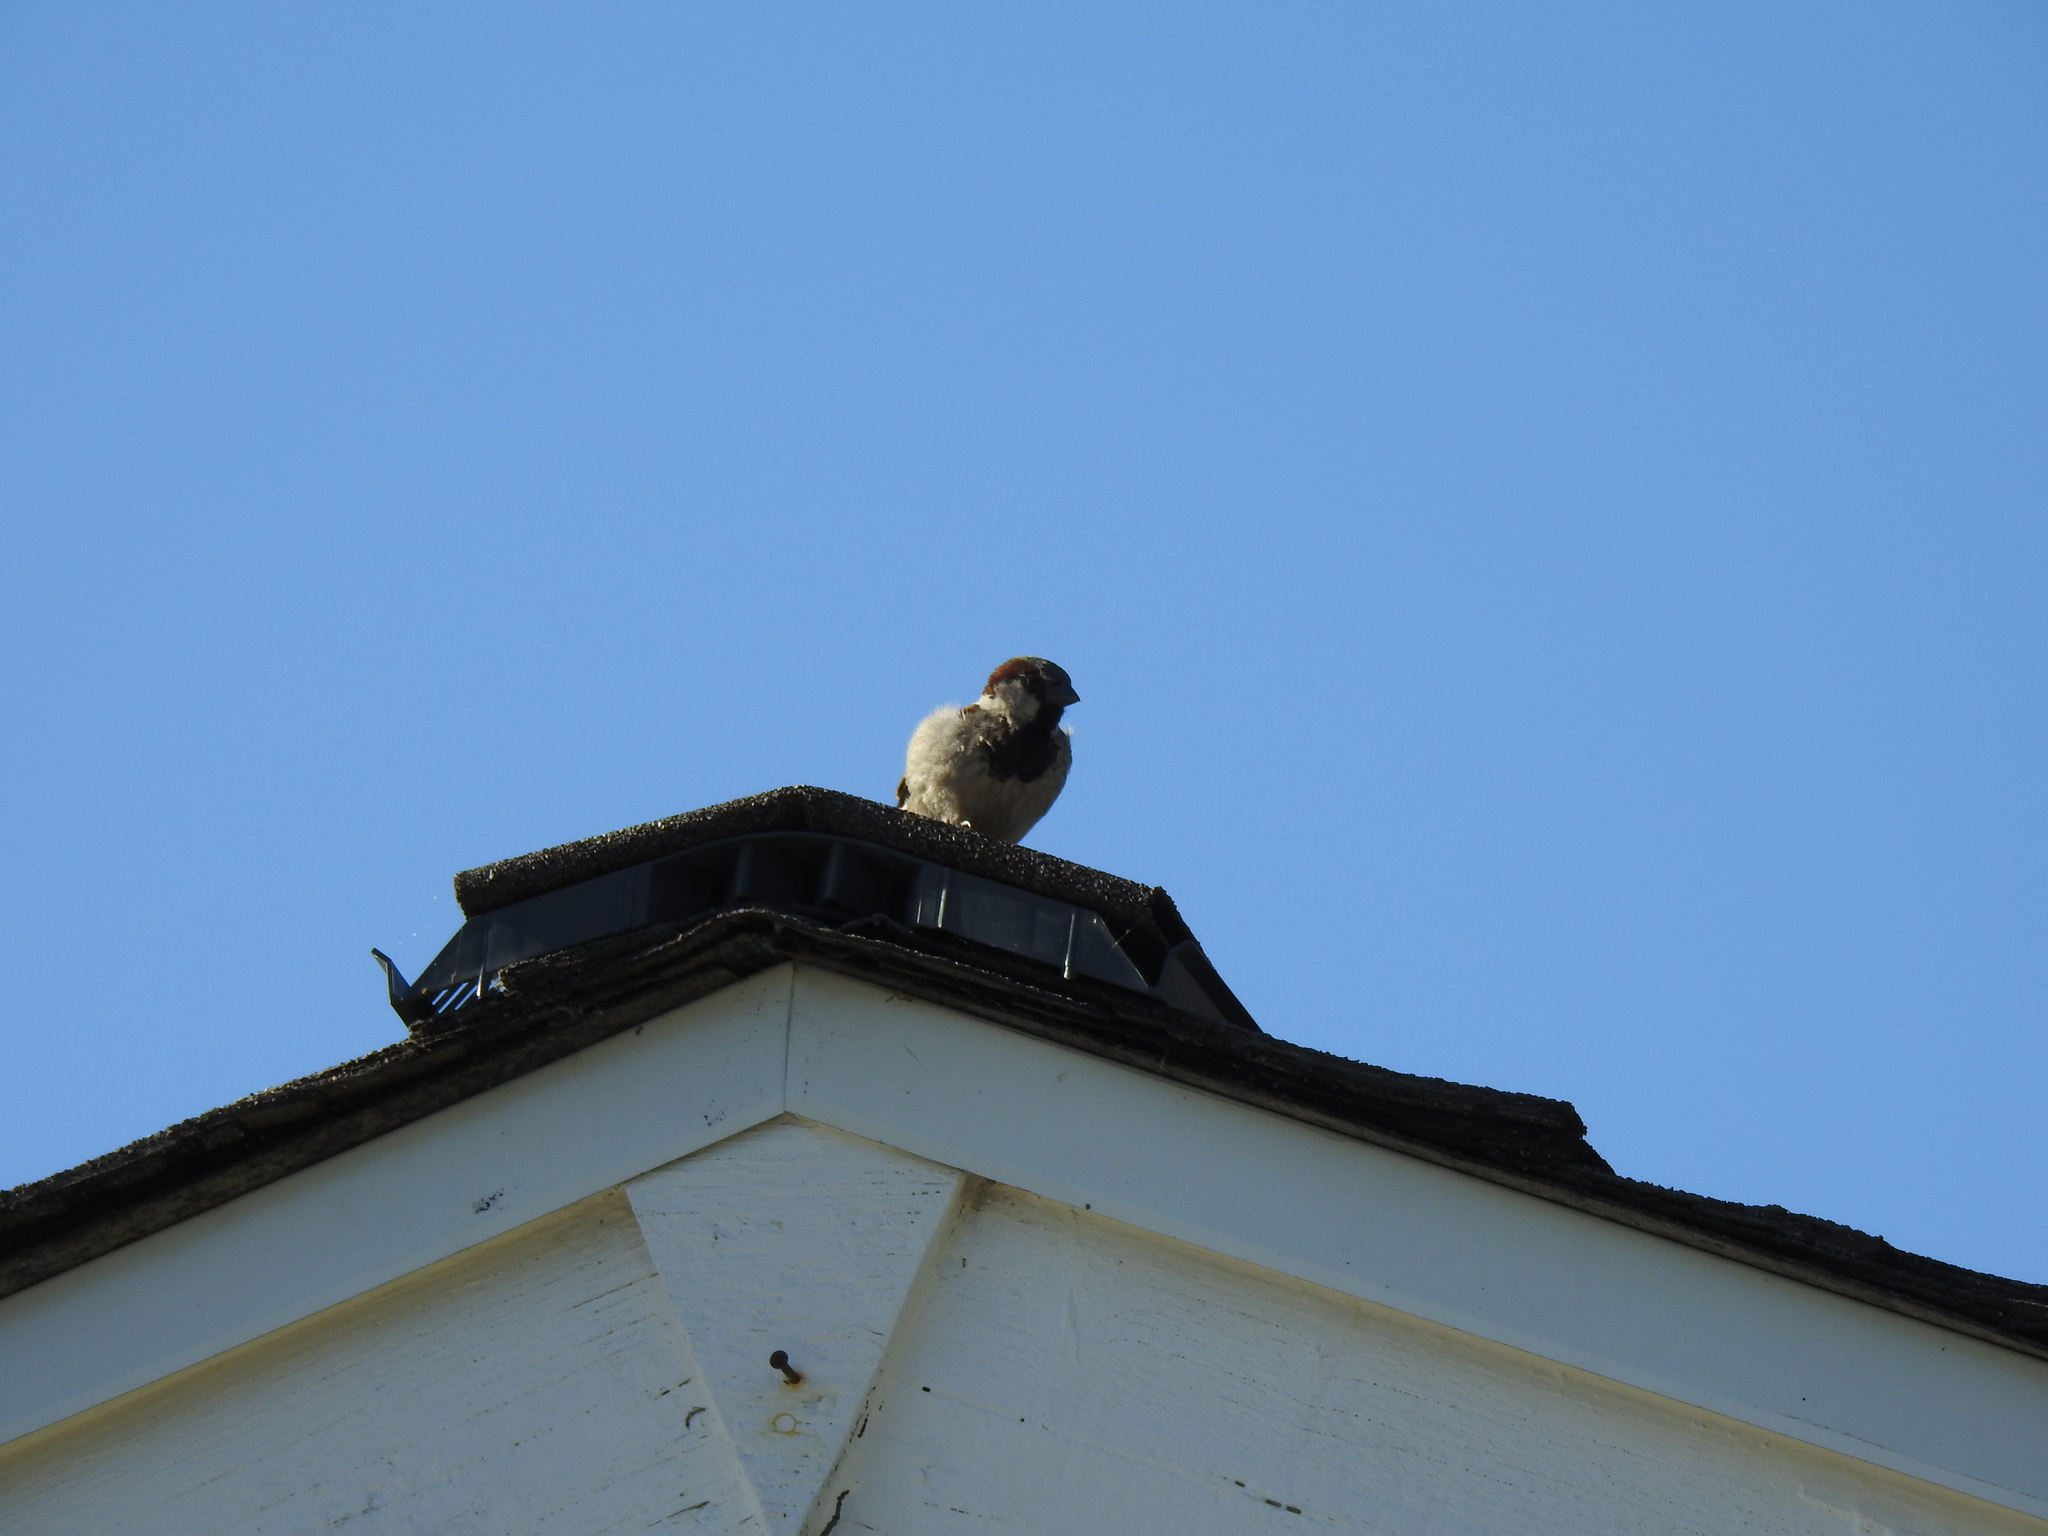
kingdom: Animalia
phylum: Chordata
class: Aves
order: Passeriformes
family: Passeridae
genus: Passer
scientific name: Passer domesticus
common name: House sparrow
